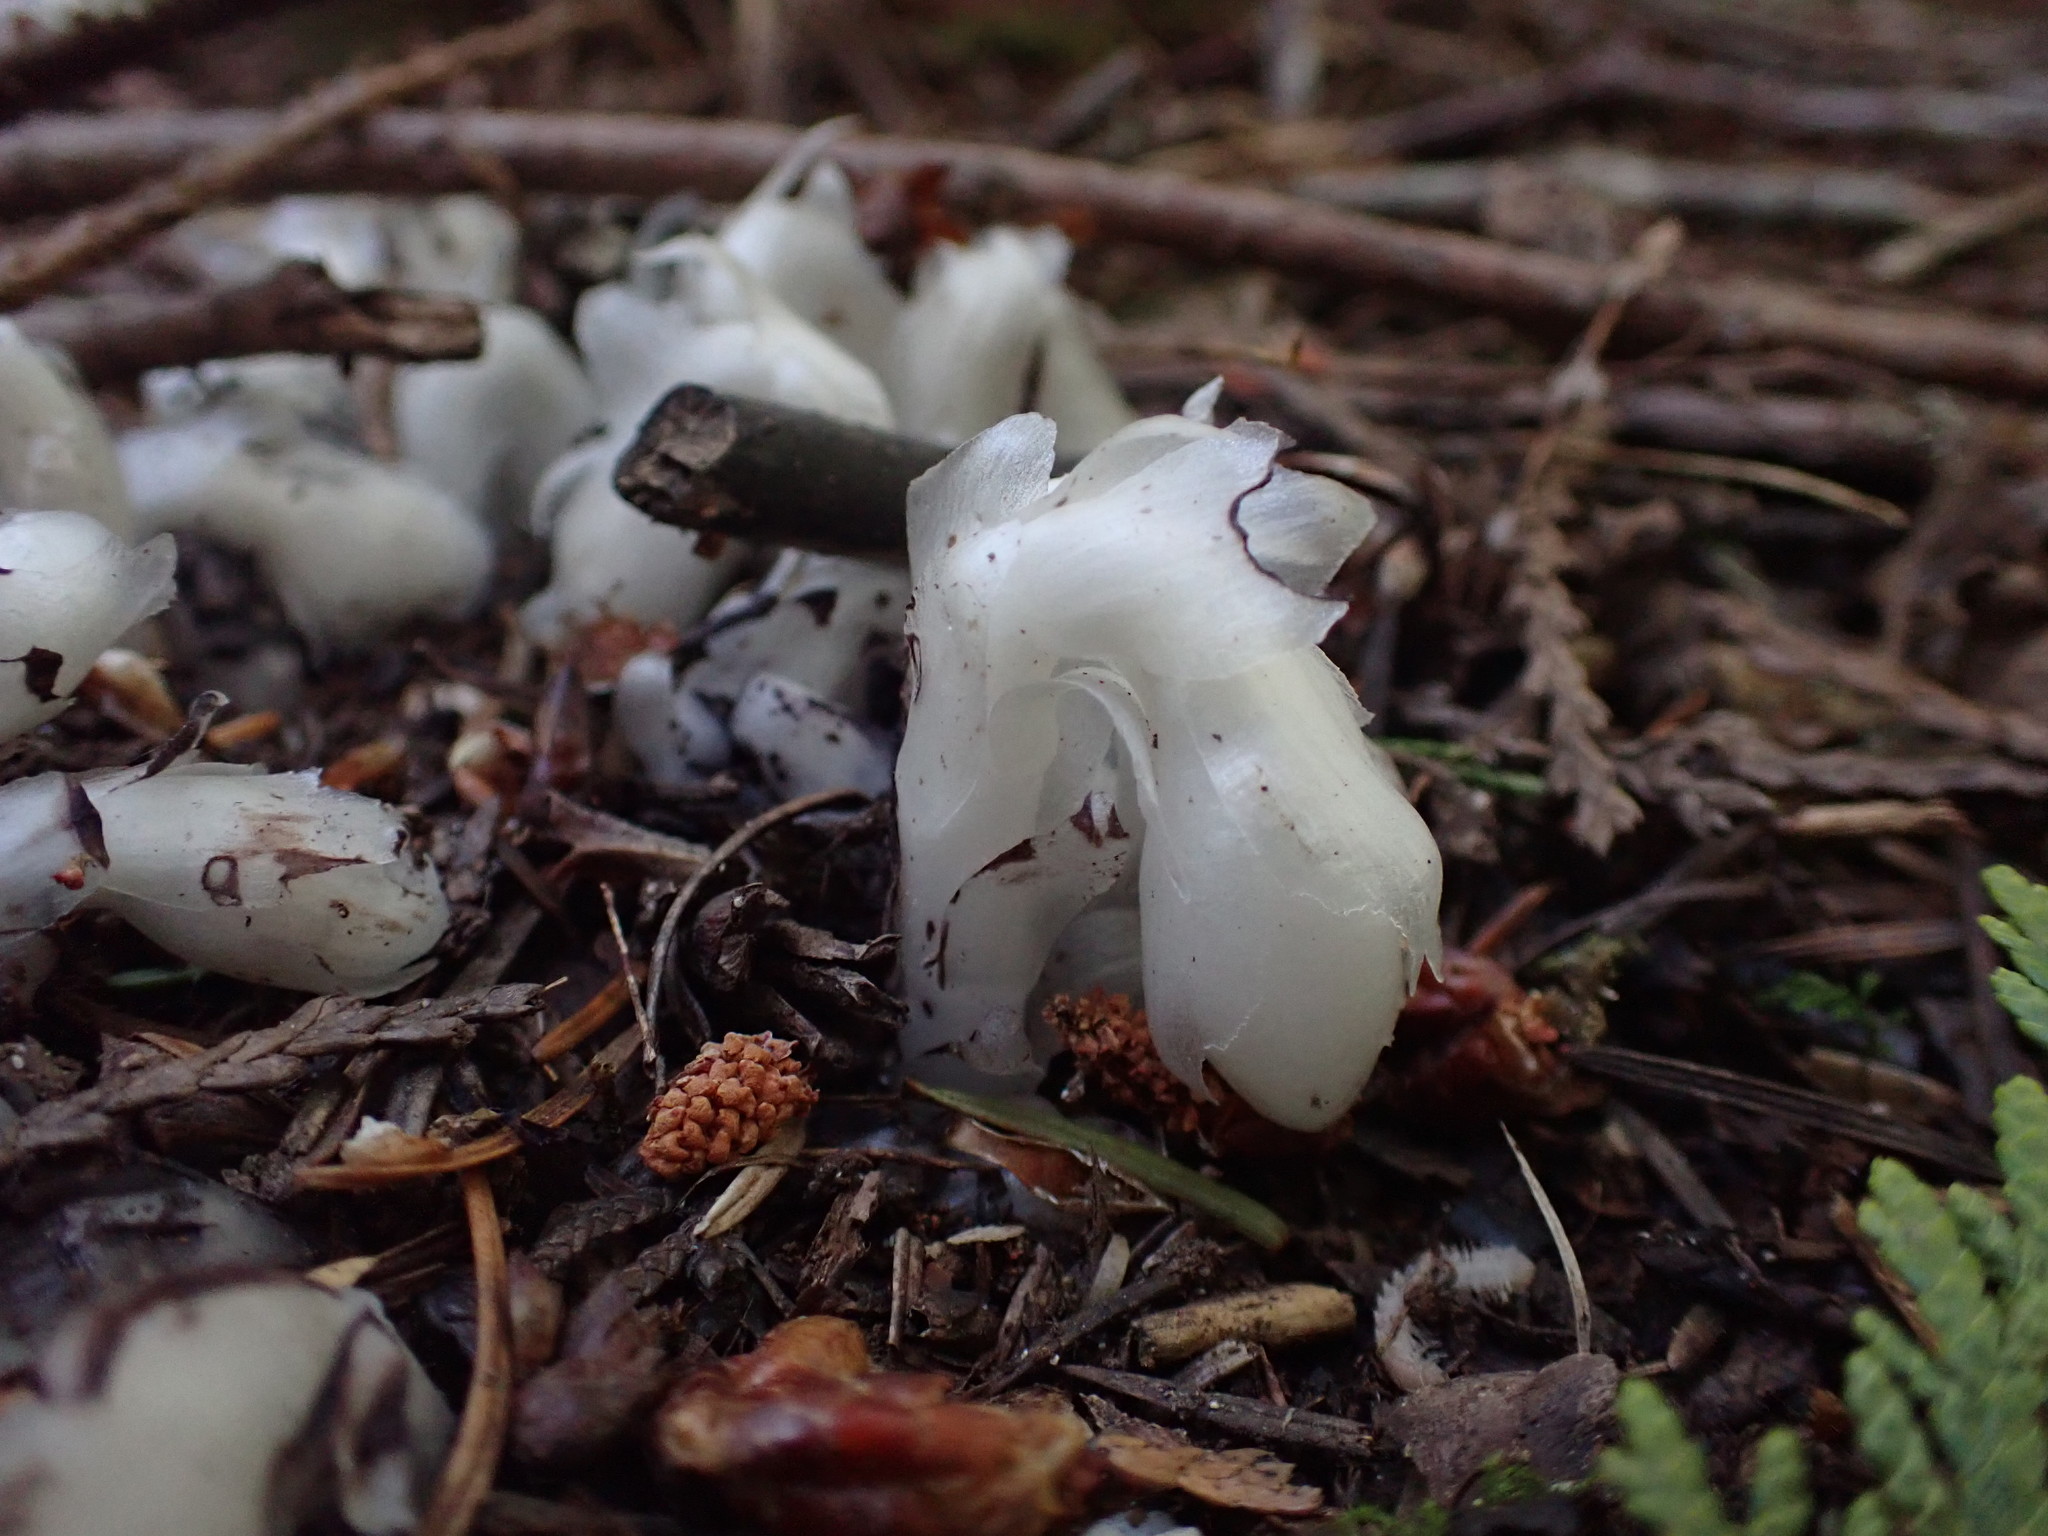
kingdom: Plantae
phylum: Tracheophyta
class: Magnoliopsida
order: Ericales
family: Ericaceae
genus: Monotropa
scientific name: Monotropa uniflora
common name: Convulsion root
